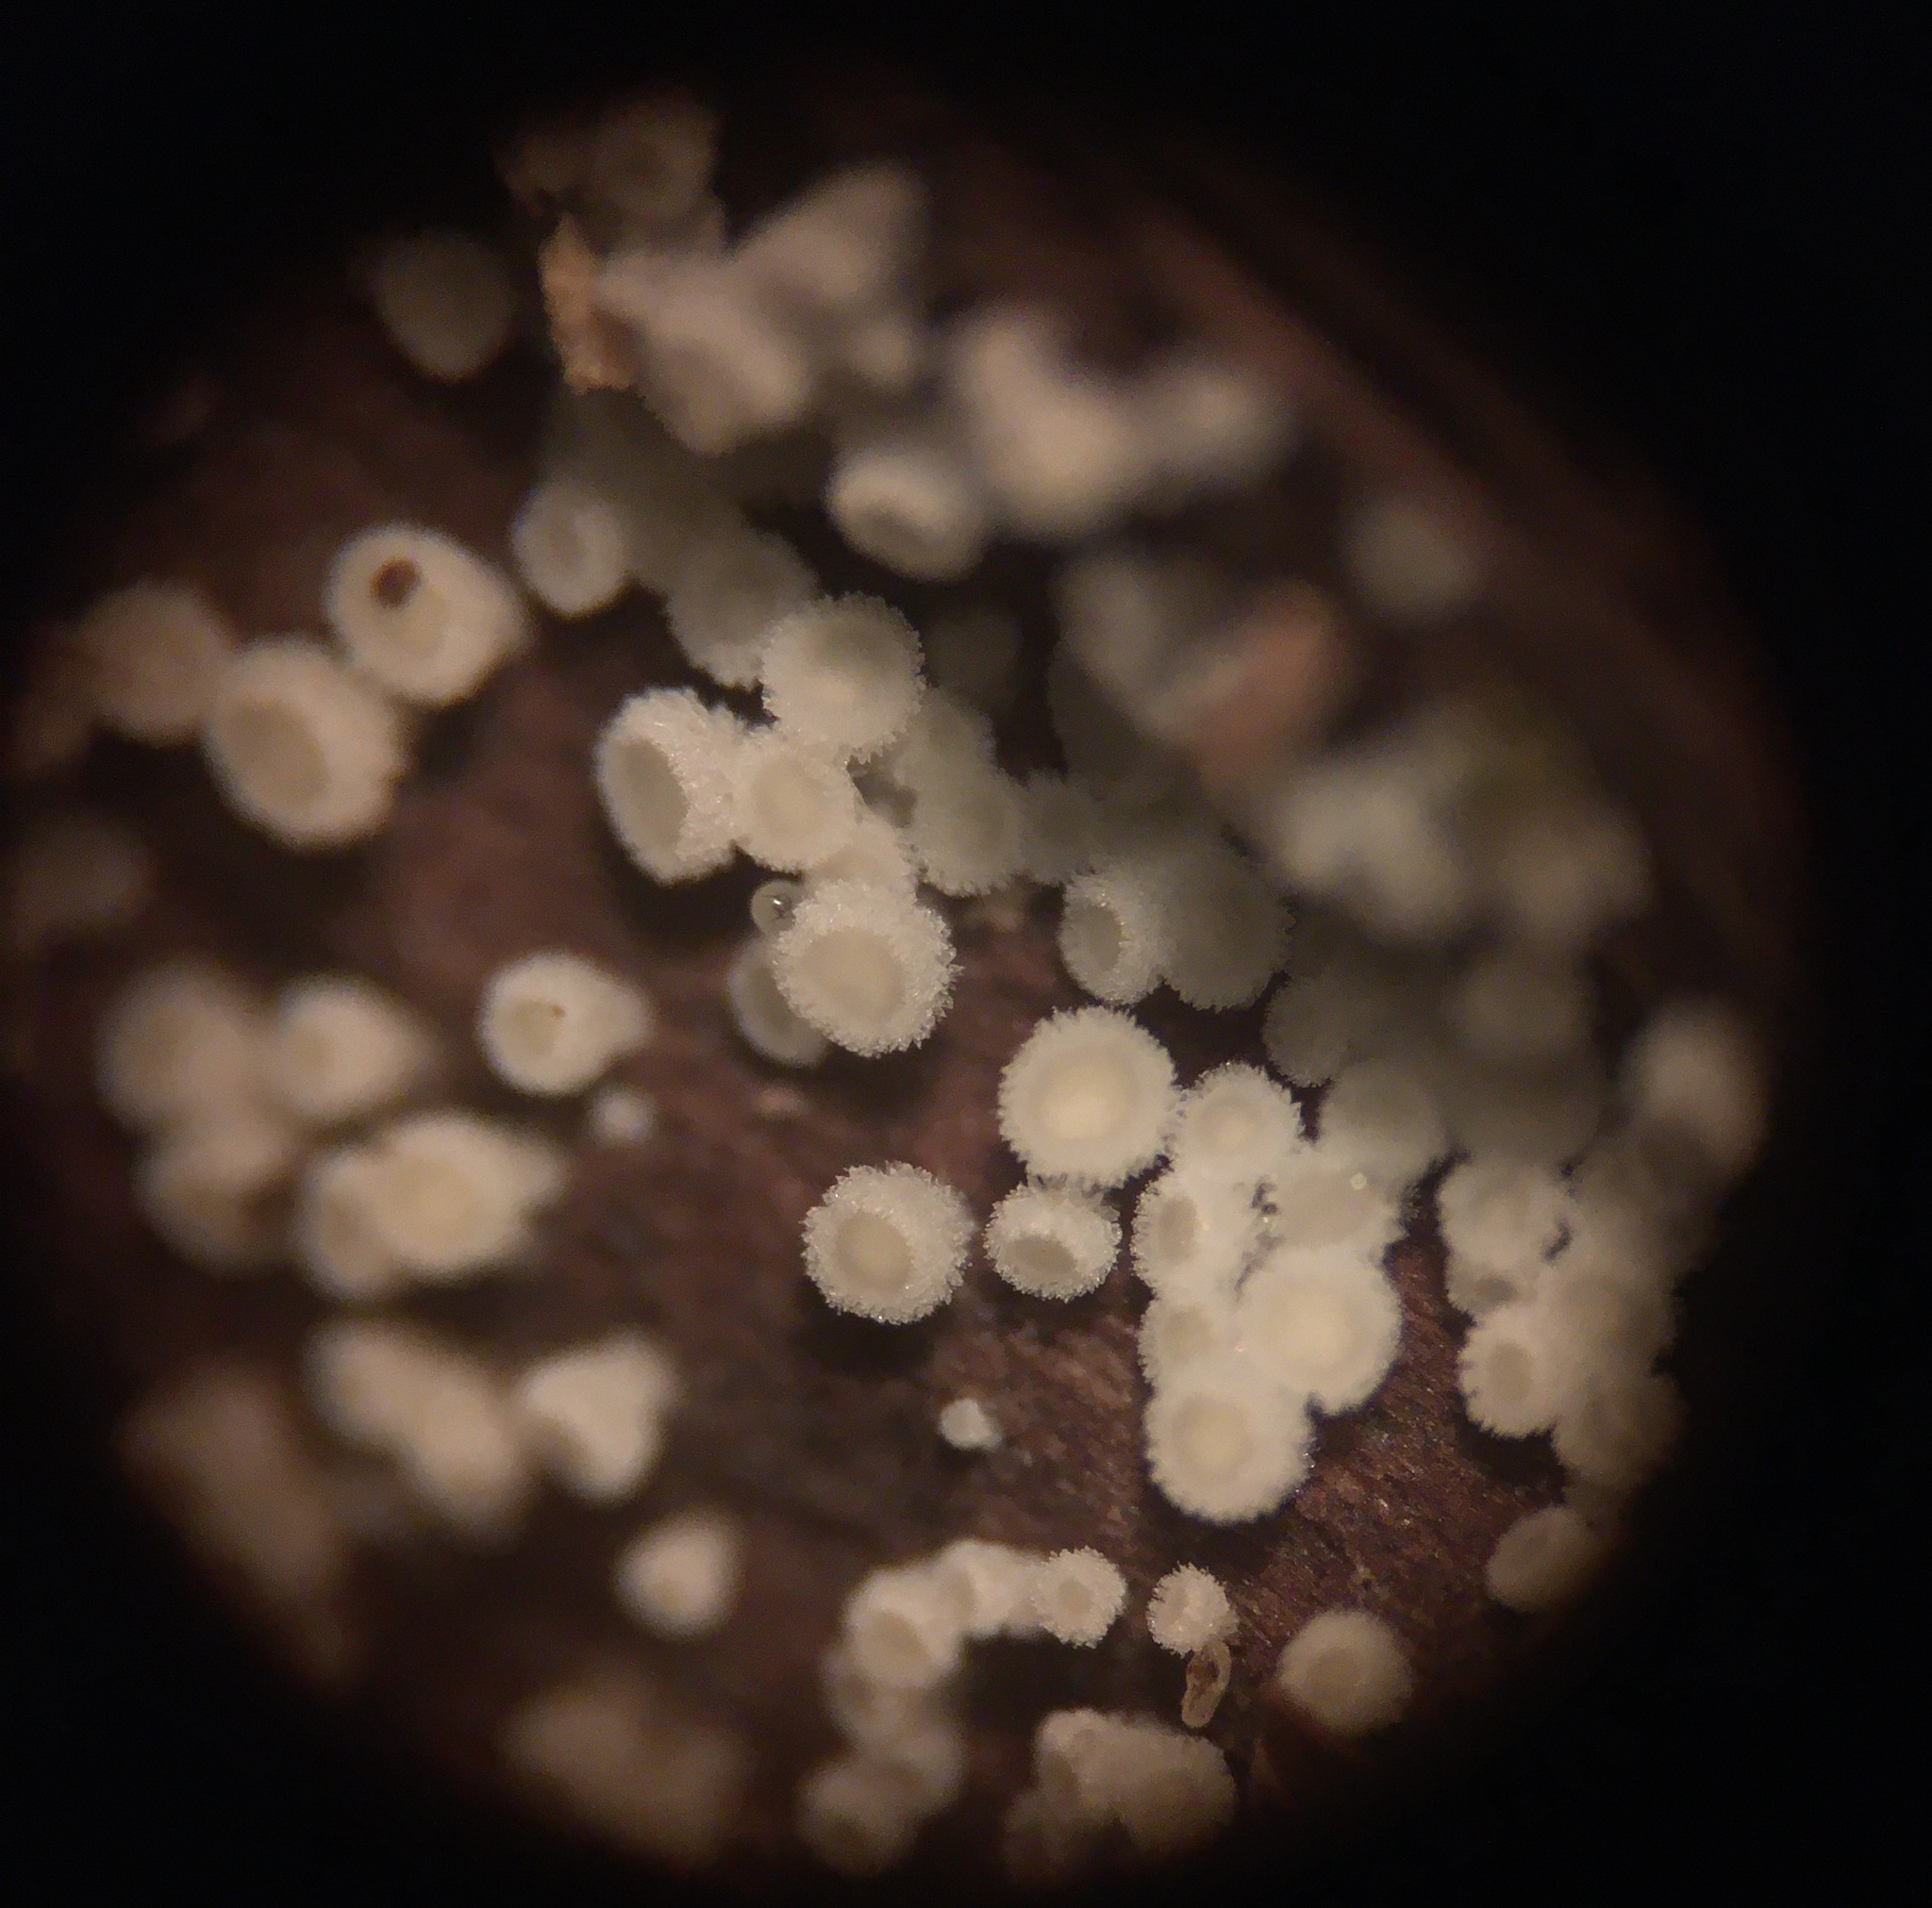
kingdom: Fungi
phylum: Ascomycota
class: Leotiomycetes
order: Helotiales
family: Lachnaceae
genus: Lachnum
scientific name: Lachnum virgineum
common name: Snowy disco
